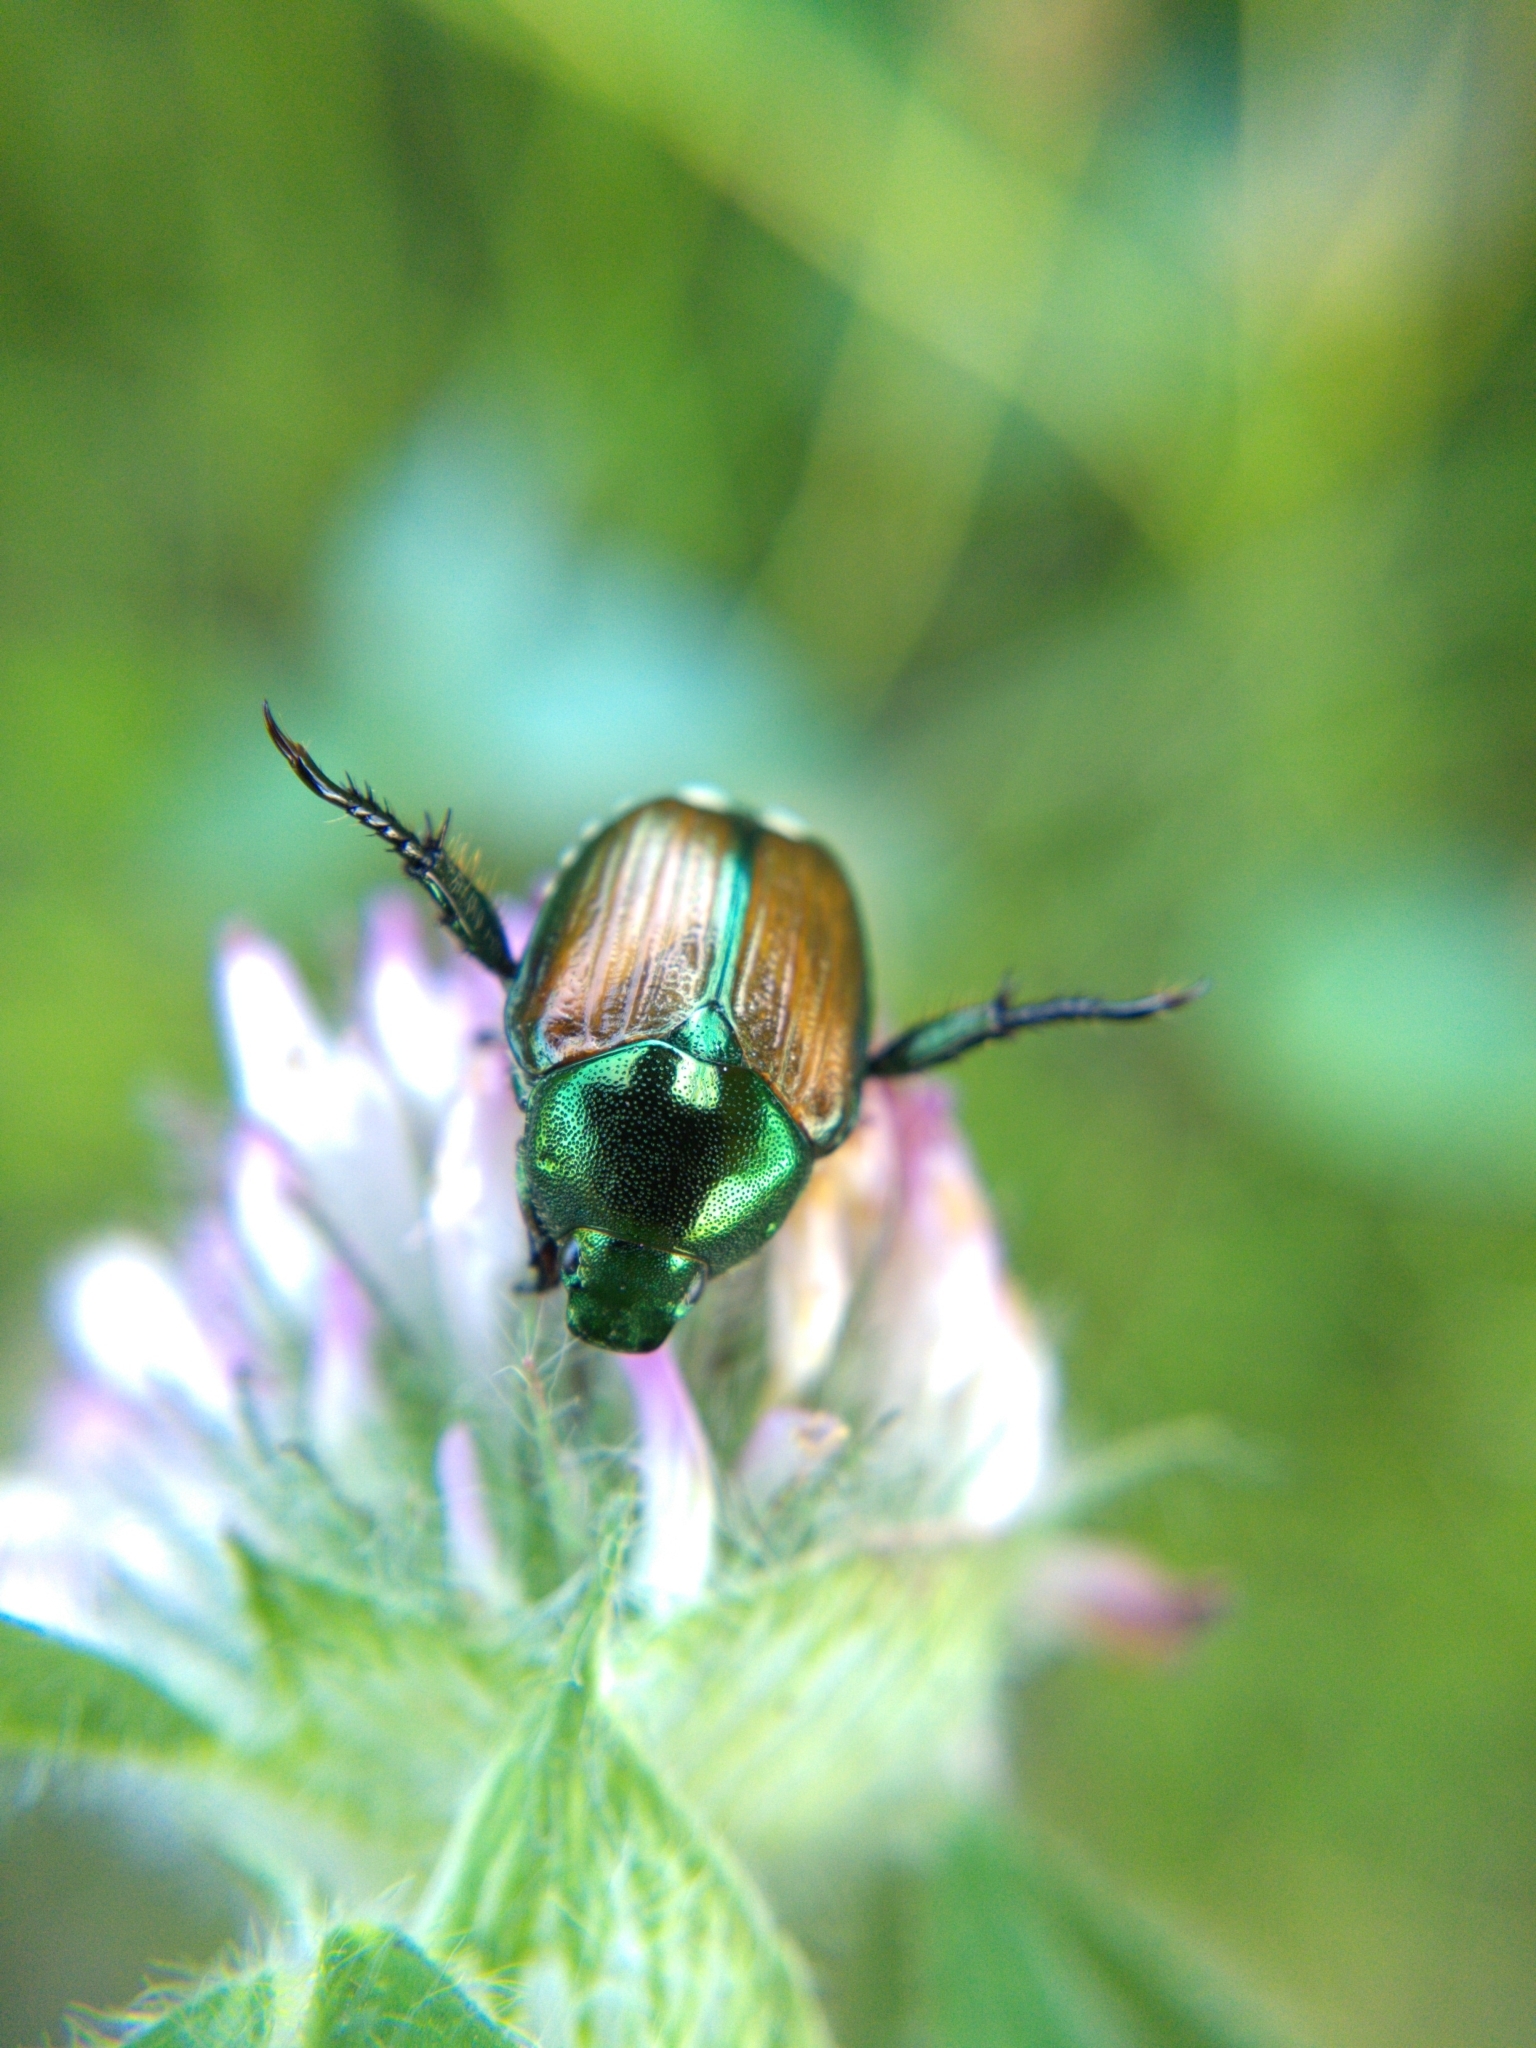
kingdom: Animalia
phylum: Arthropoda
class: Insecta
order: Coleoptera
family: Scarabaeidae
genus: Popillia
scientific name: Popillia japonica
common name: Japanese beetle
